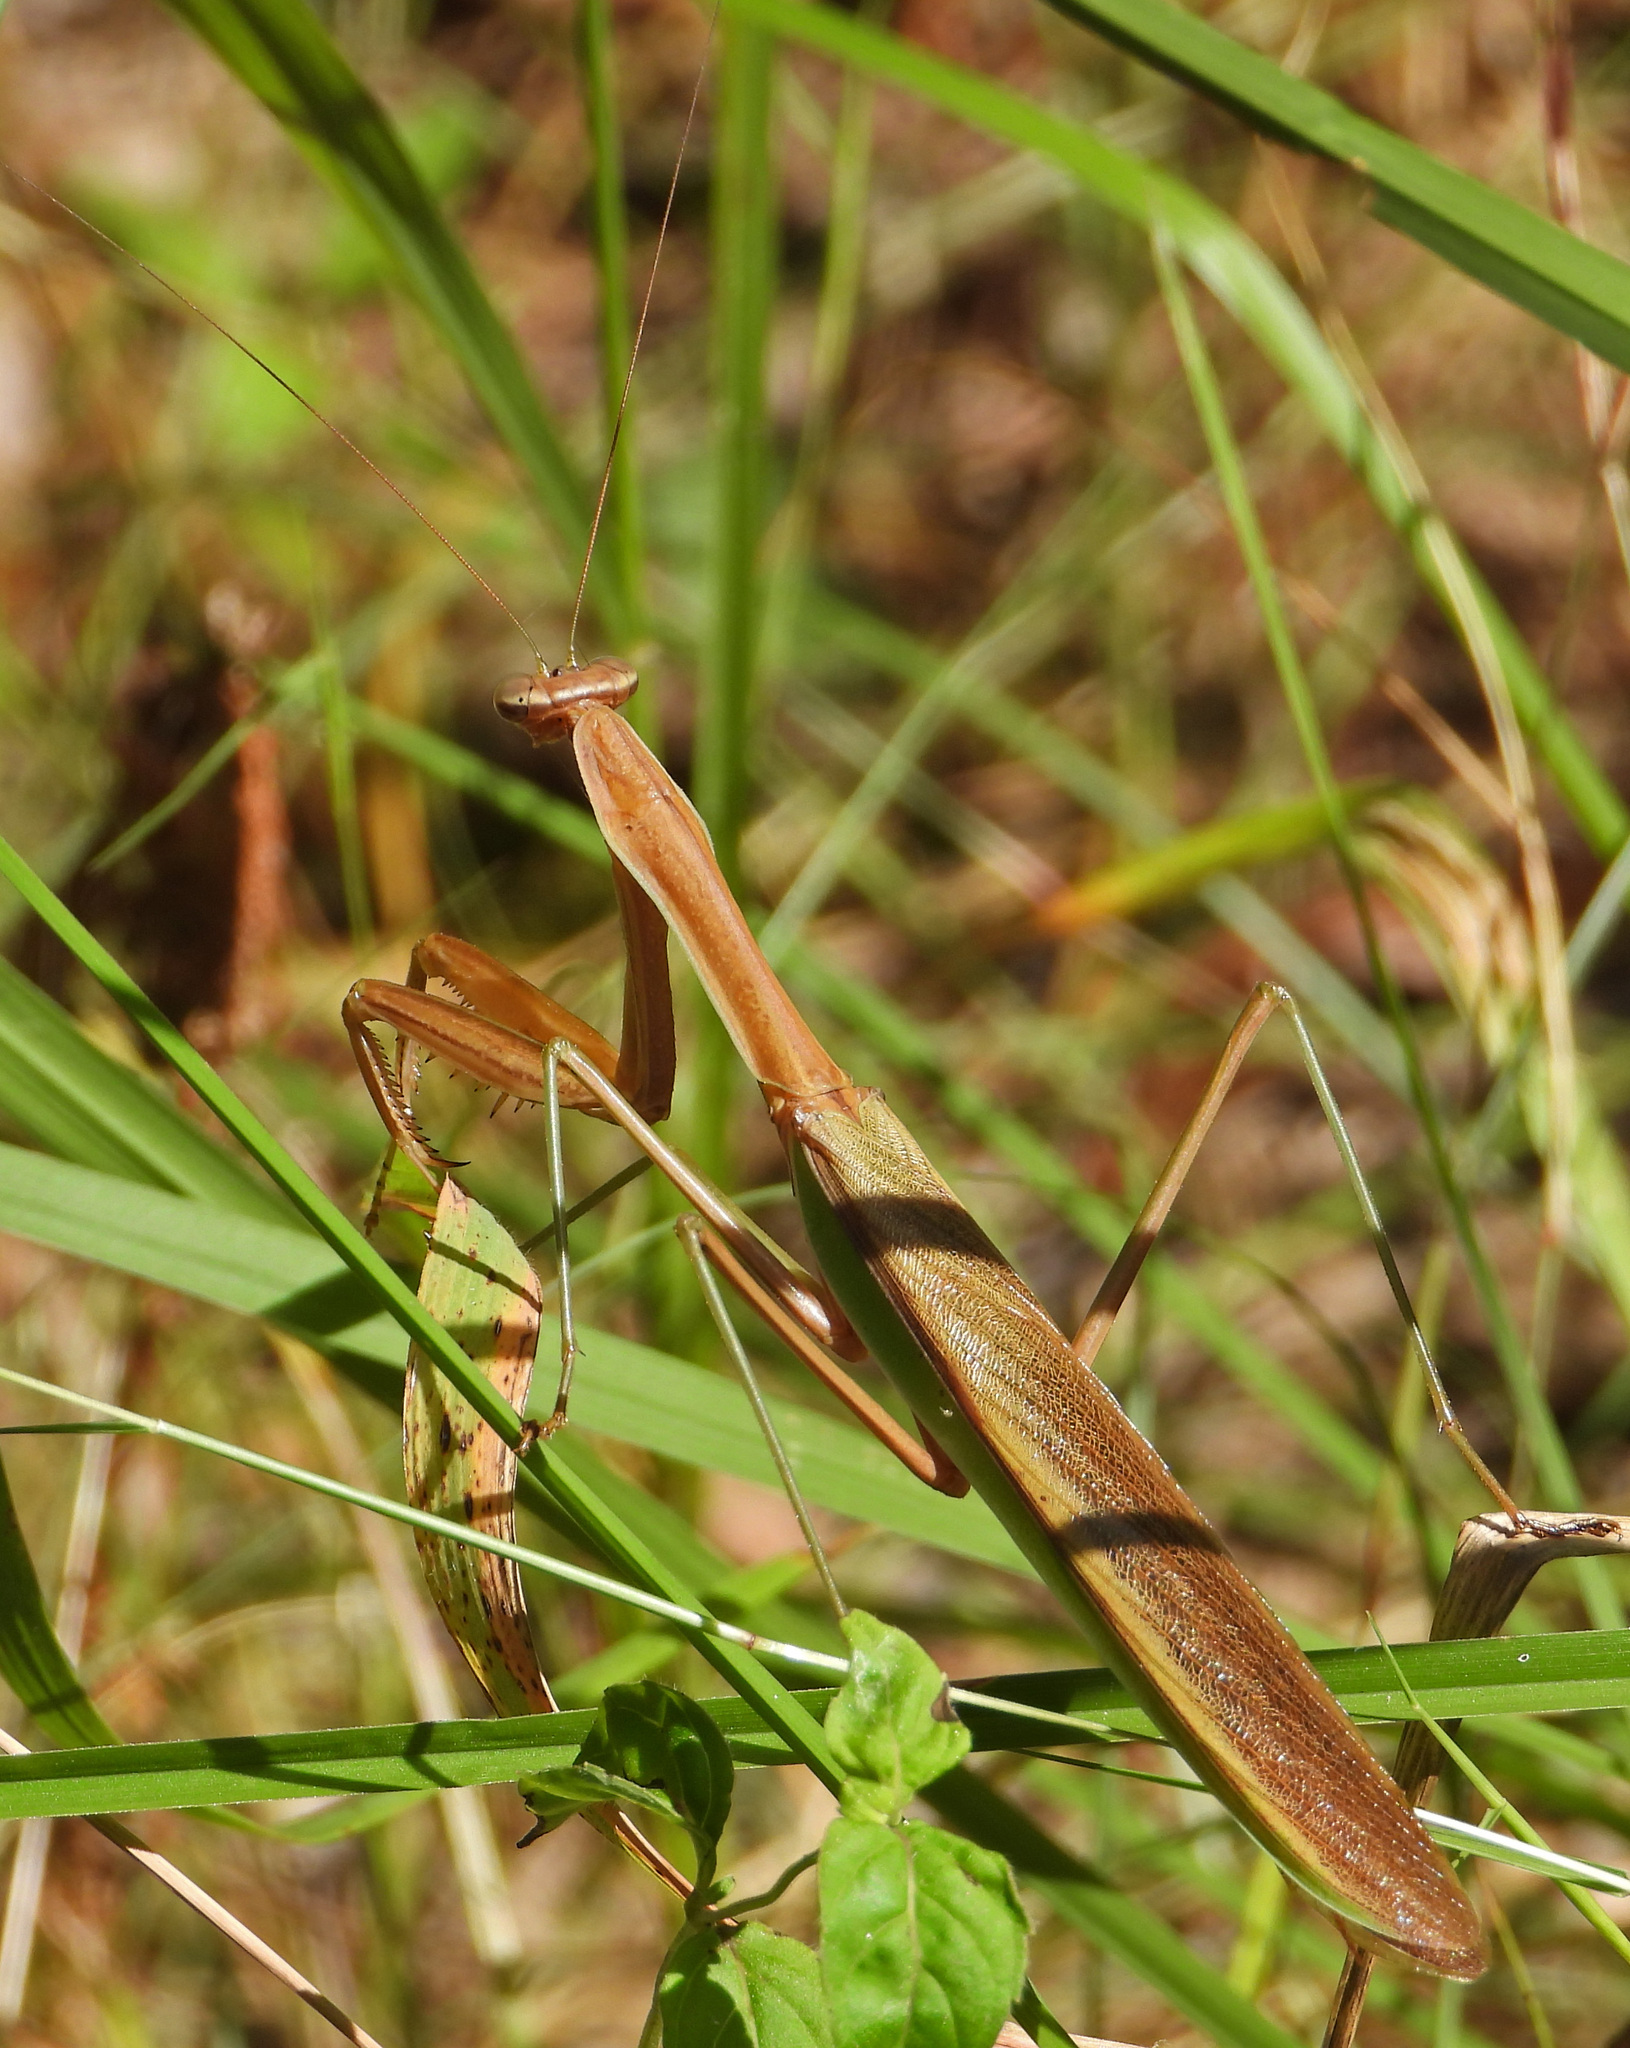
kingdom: Animalia
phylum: Arthropoda
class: Insecta
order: Mantodea
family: Mantidae
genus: Tenodera
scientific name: Tenodera sinensis
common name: Chinese mantis
